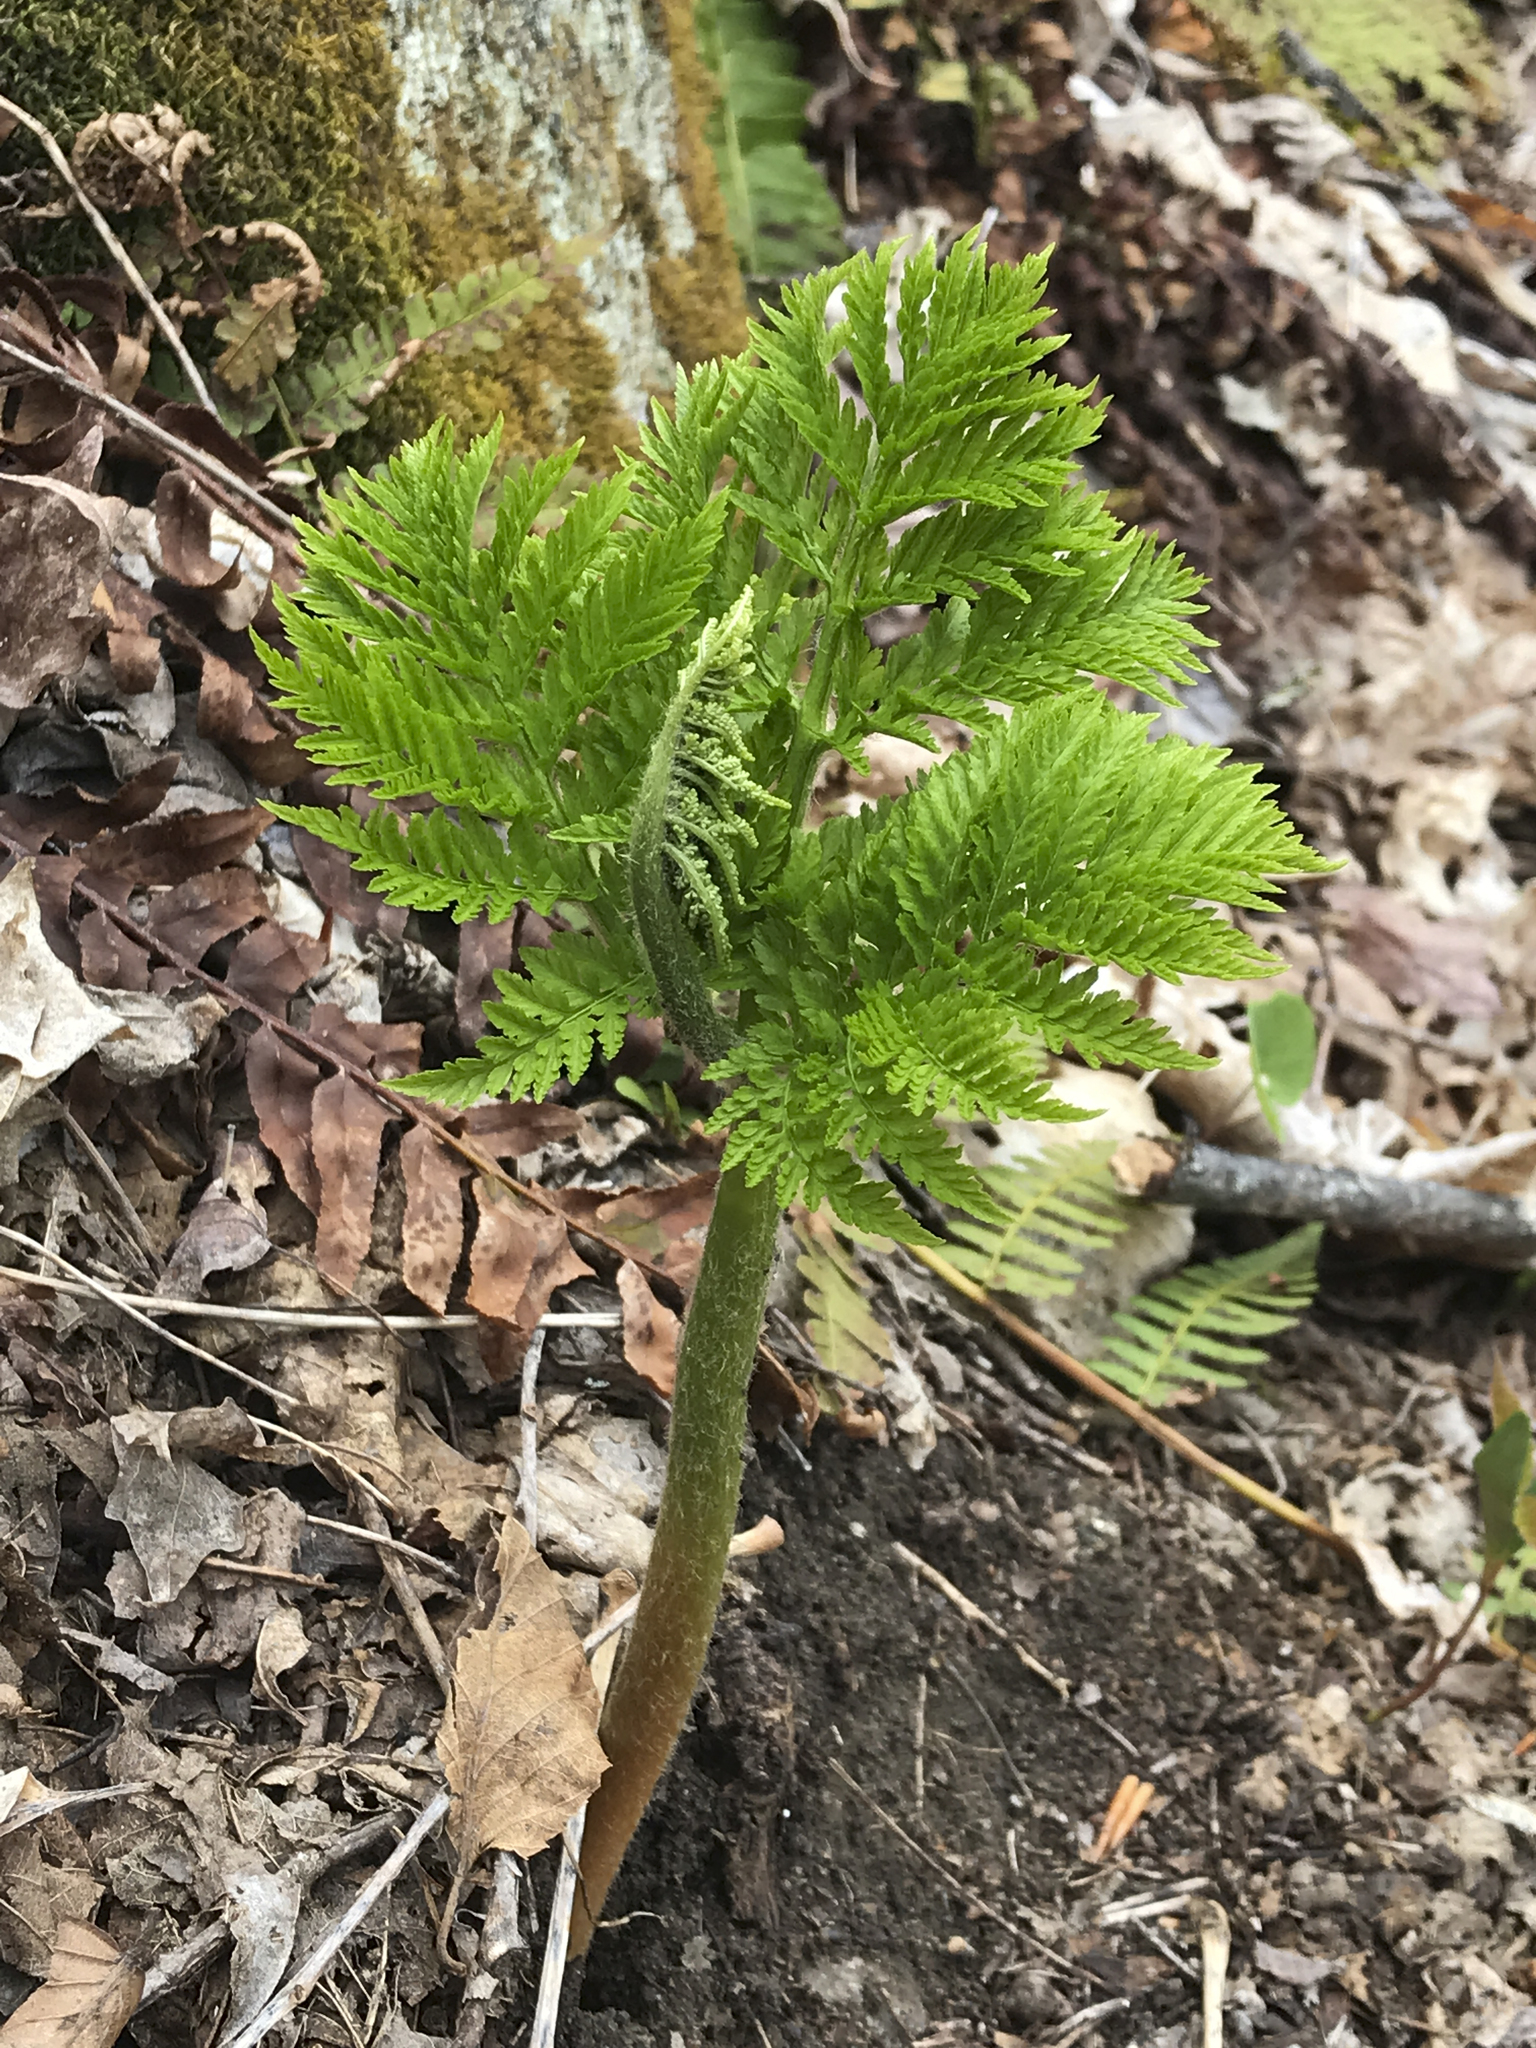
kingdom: Plantae
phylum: Tracheophyta
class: Polypodiopsida
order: Ophioglossales
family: Ophioglossaceae
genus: Botrypus
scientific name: Botrypus virginianus
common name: Common grapefern
